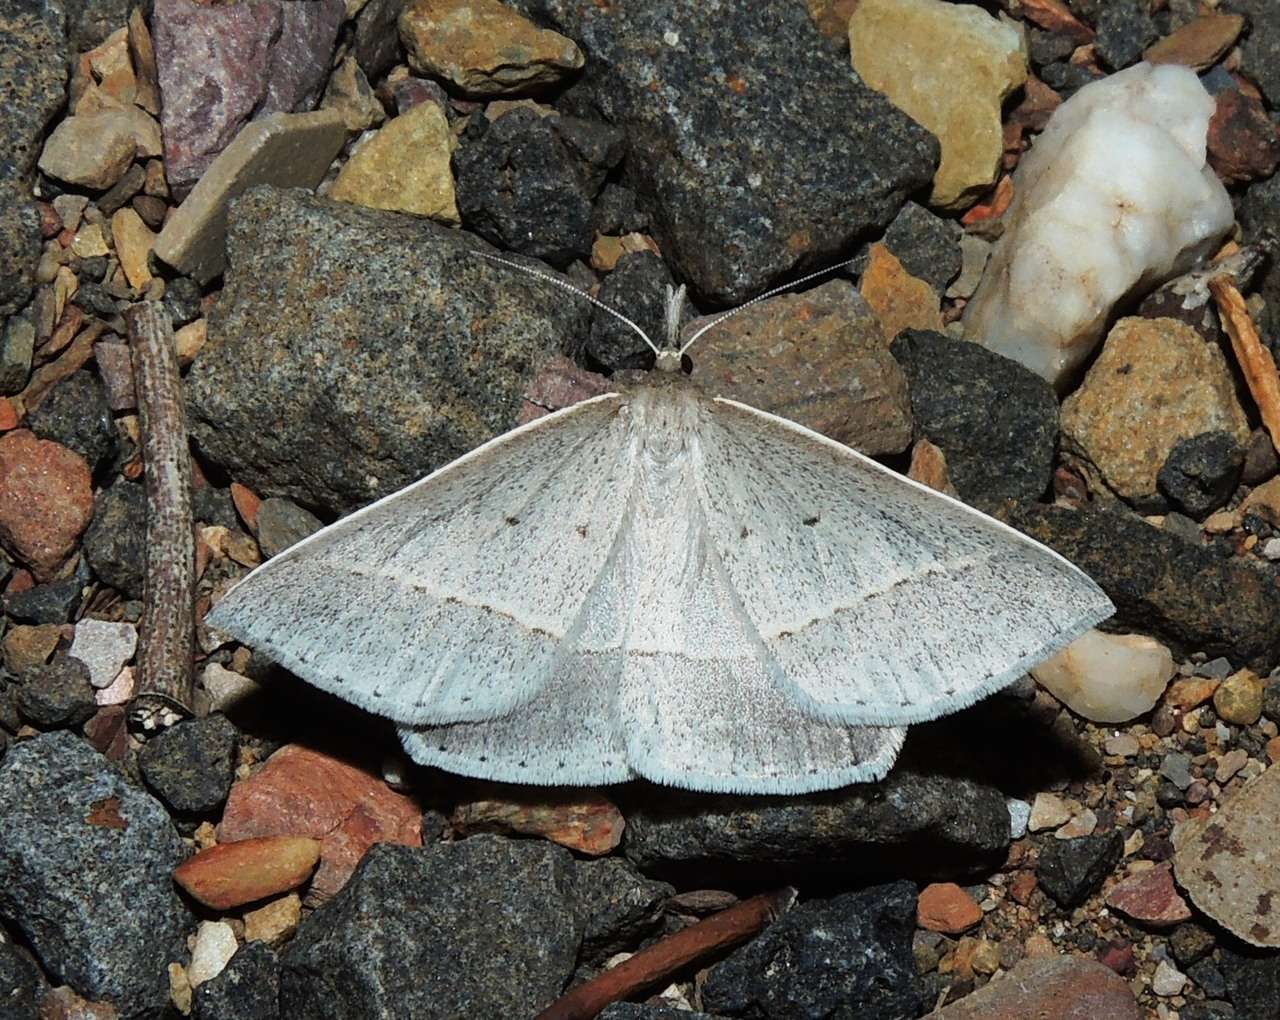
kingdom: Animalia
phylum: Arthropoda
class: Insecta
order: Lepidoptera
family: Geometridae
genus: Epidesmia
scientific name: Epidesmia perfabricata
